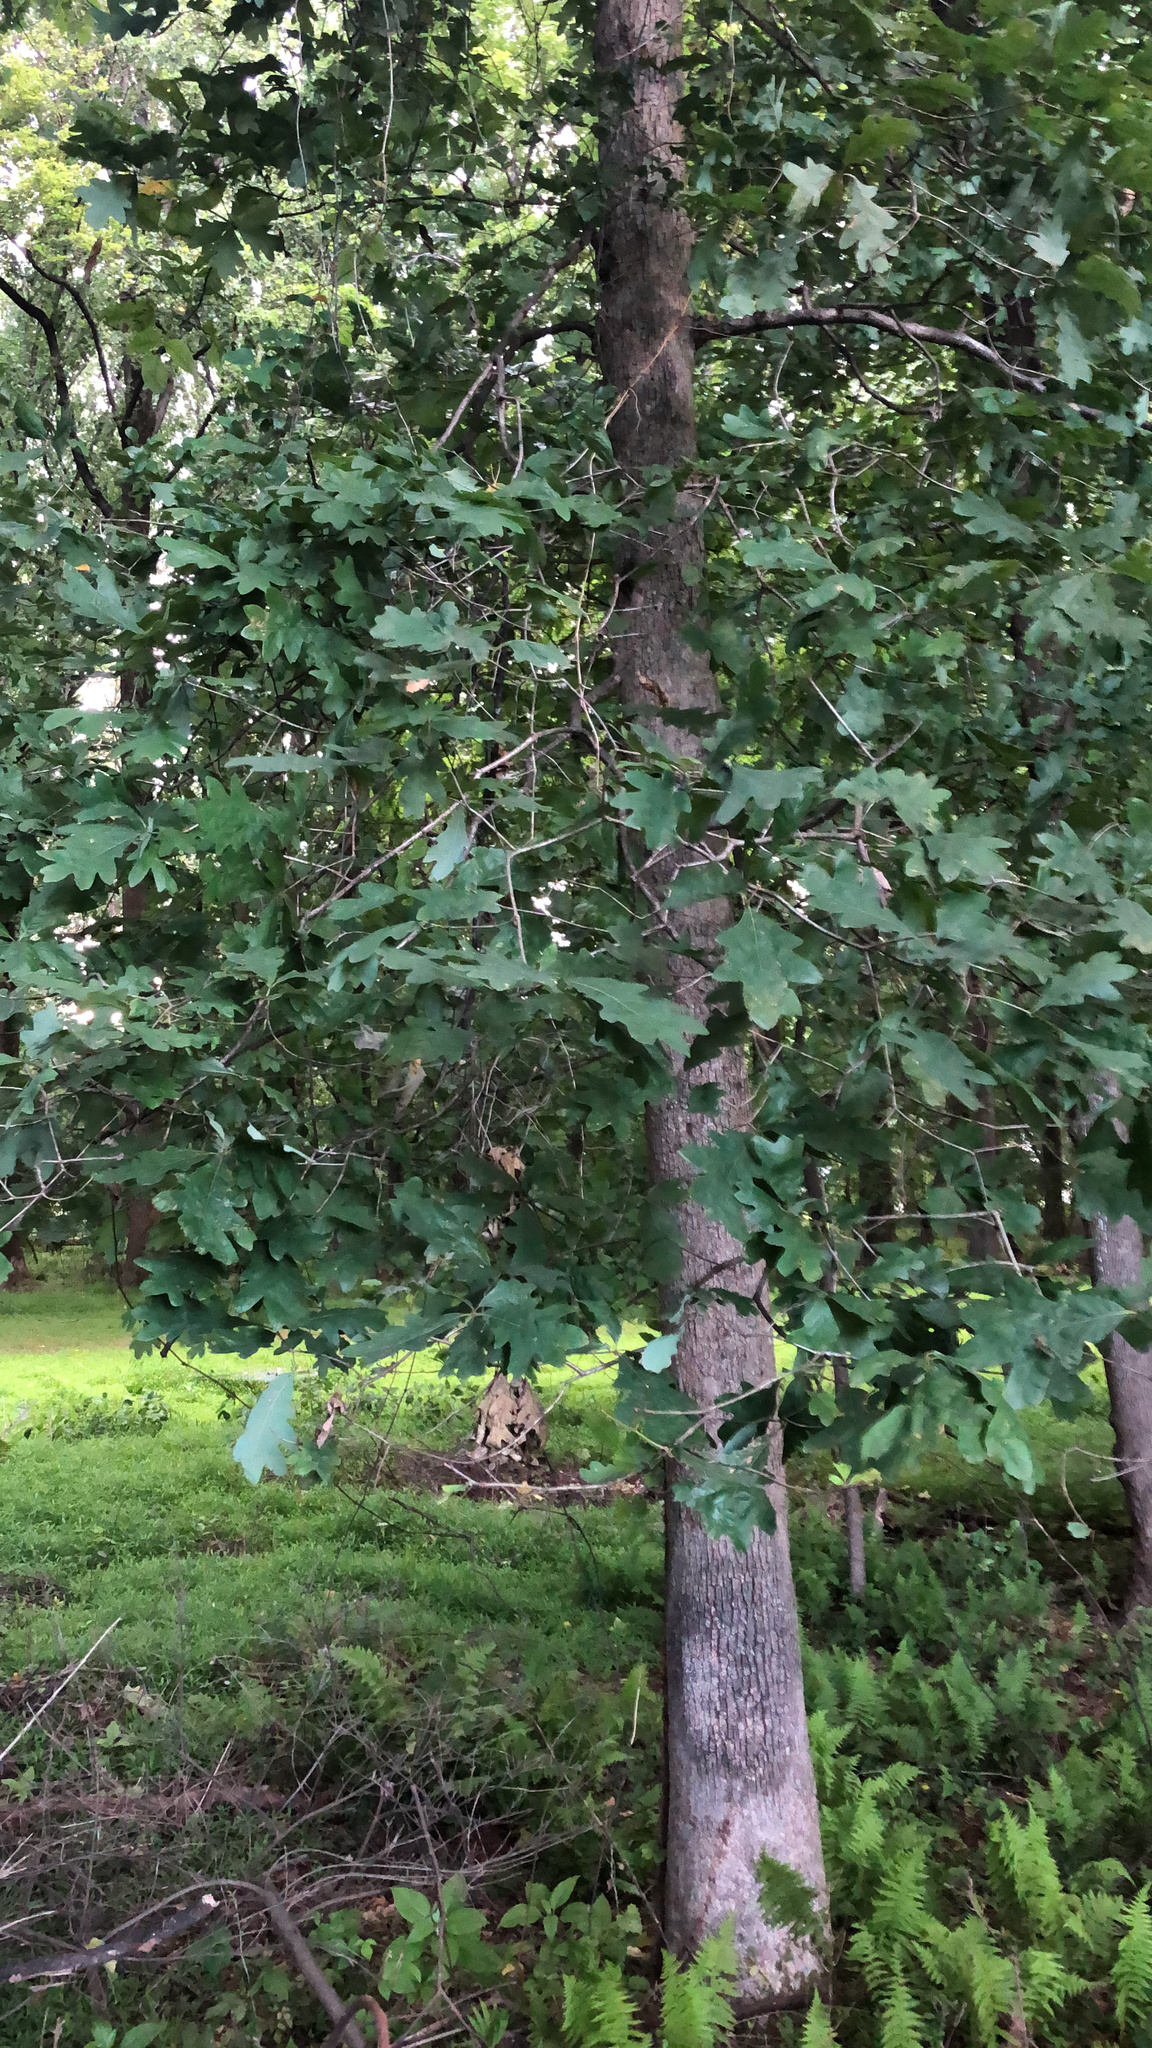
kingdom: Plantae
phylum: Tracheophyta
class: Magnoliopsida
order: Fagales
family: Fagaceae
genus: Quercus
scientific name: Quercus alba
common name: White oak
